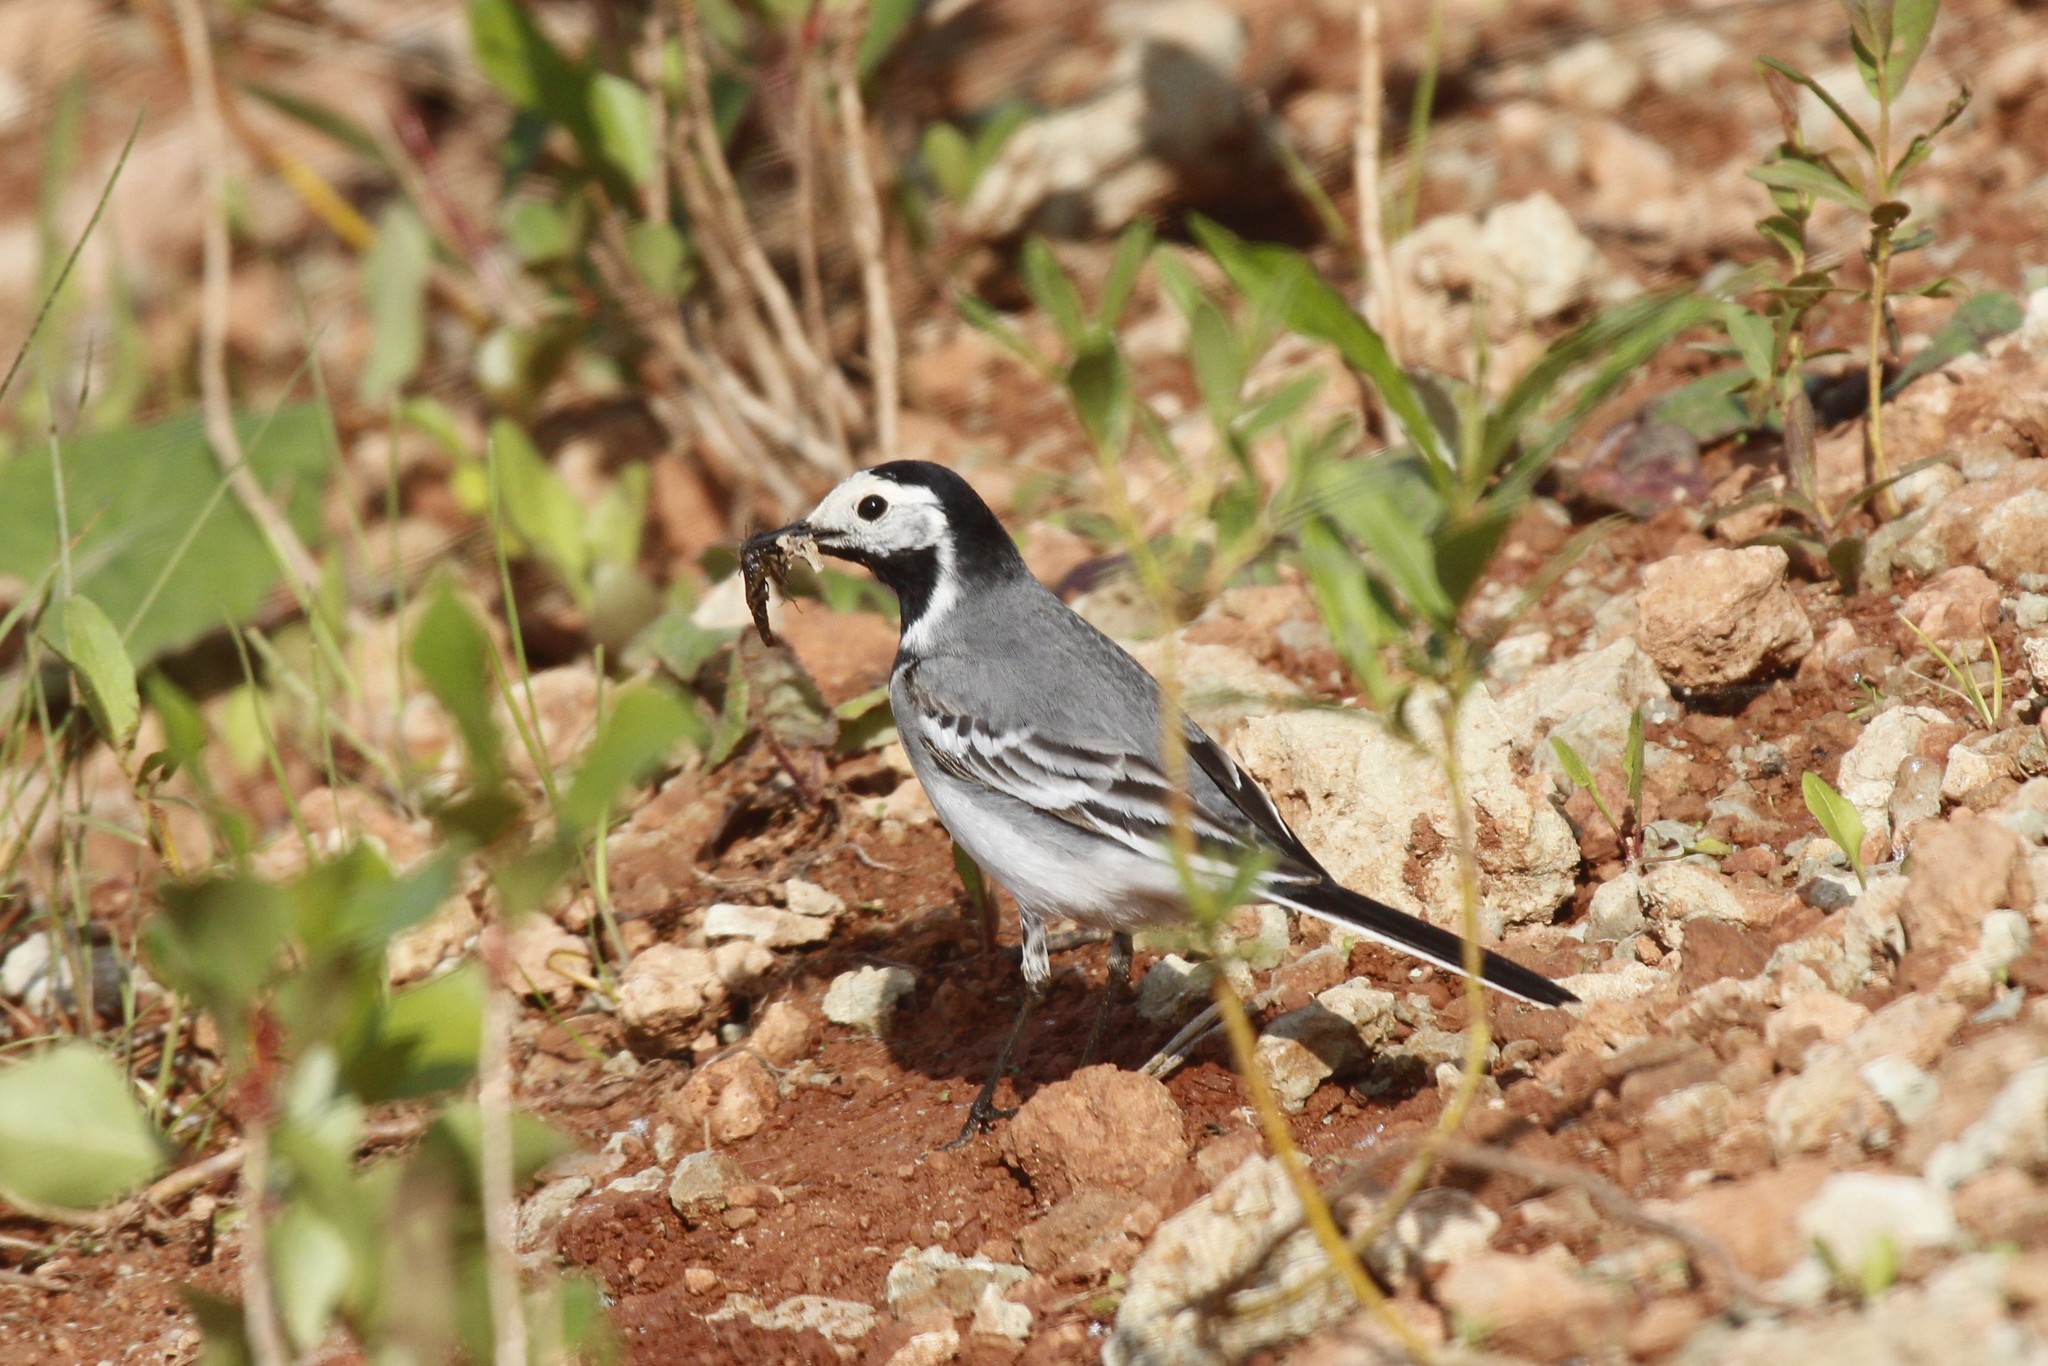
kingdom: Animalia
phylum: Chordata
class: Aves
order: Passeriformes
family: Motacillidae
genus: Motacilla
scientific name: Motacilla alba
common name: White wagtail
